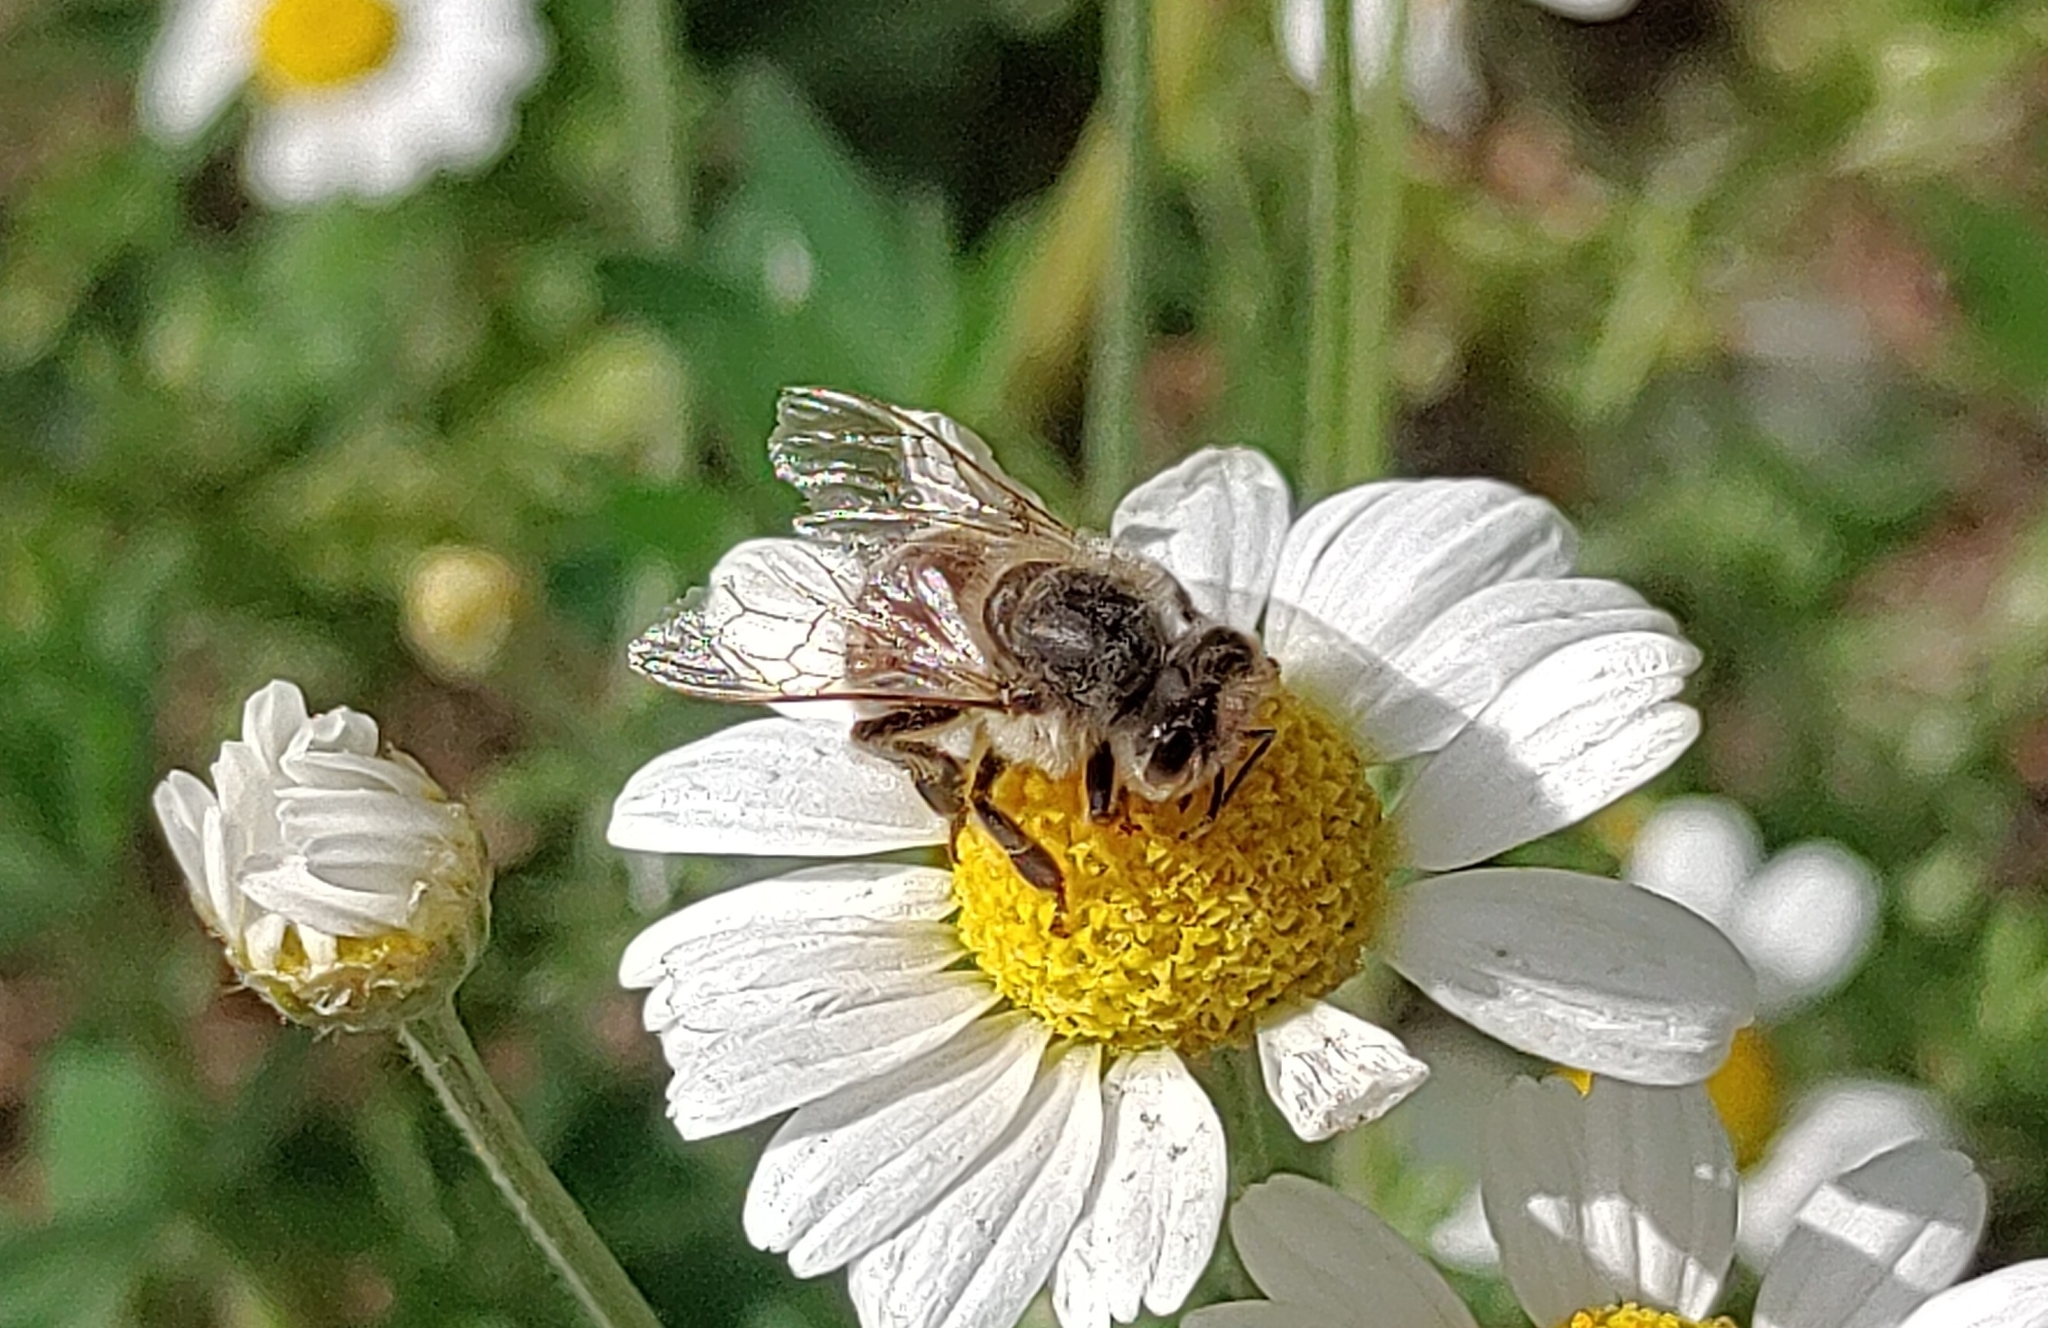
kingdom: Animalia
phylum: Arthropoda
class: Insecta
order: Hymenoptera
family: Apidae
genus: Apis
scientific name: Apis mellifera
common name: Honey bee
